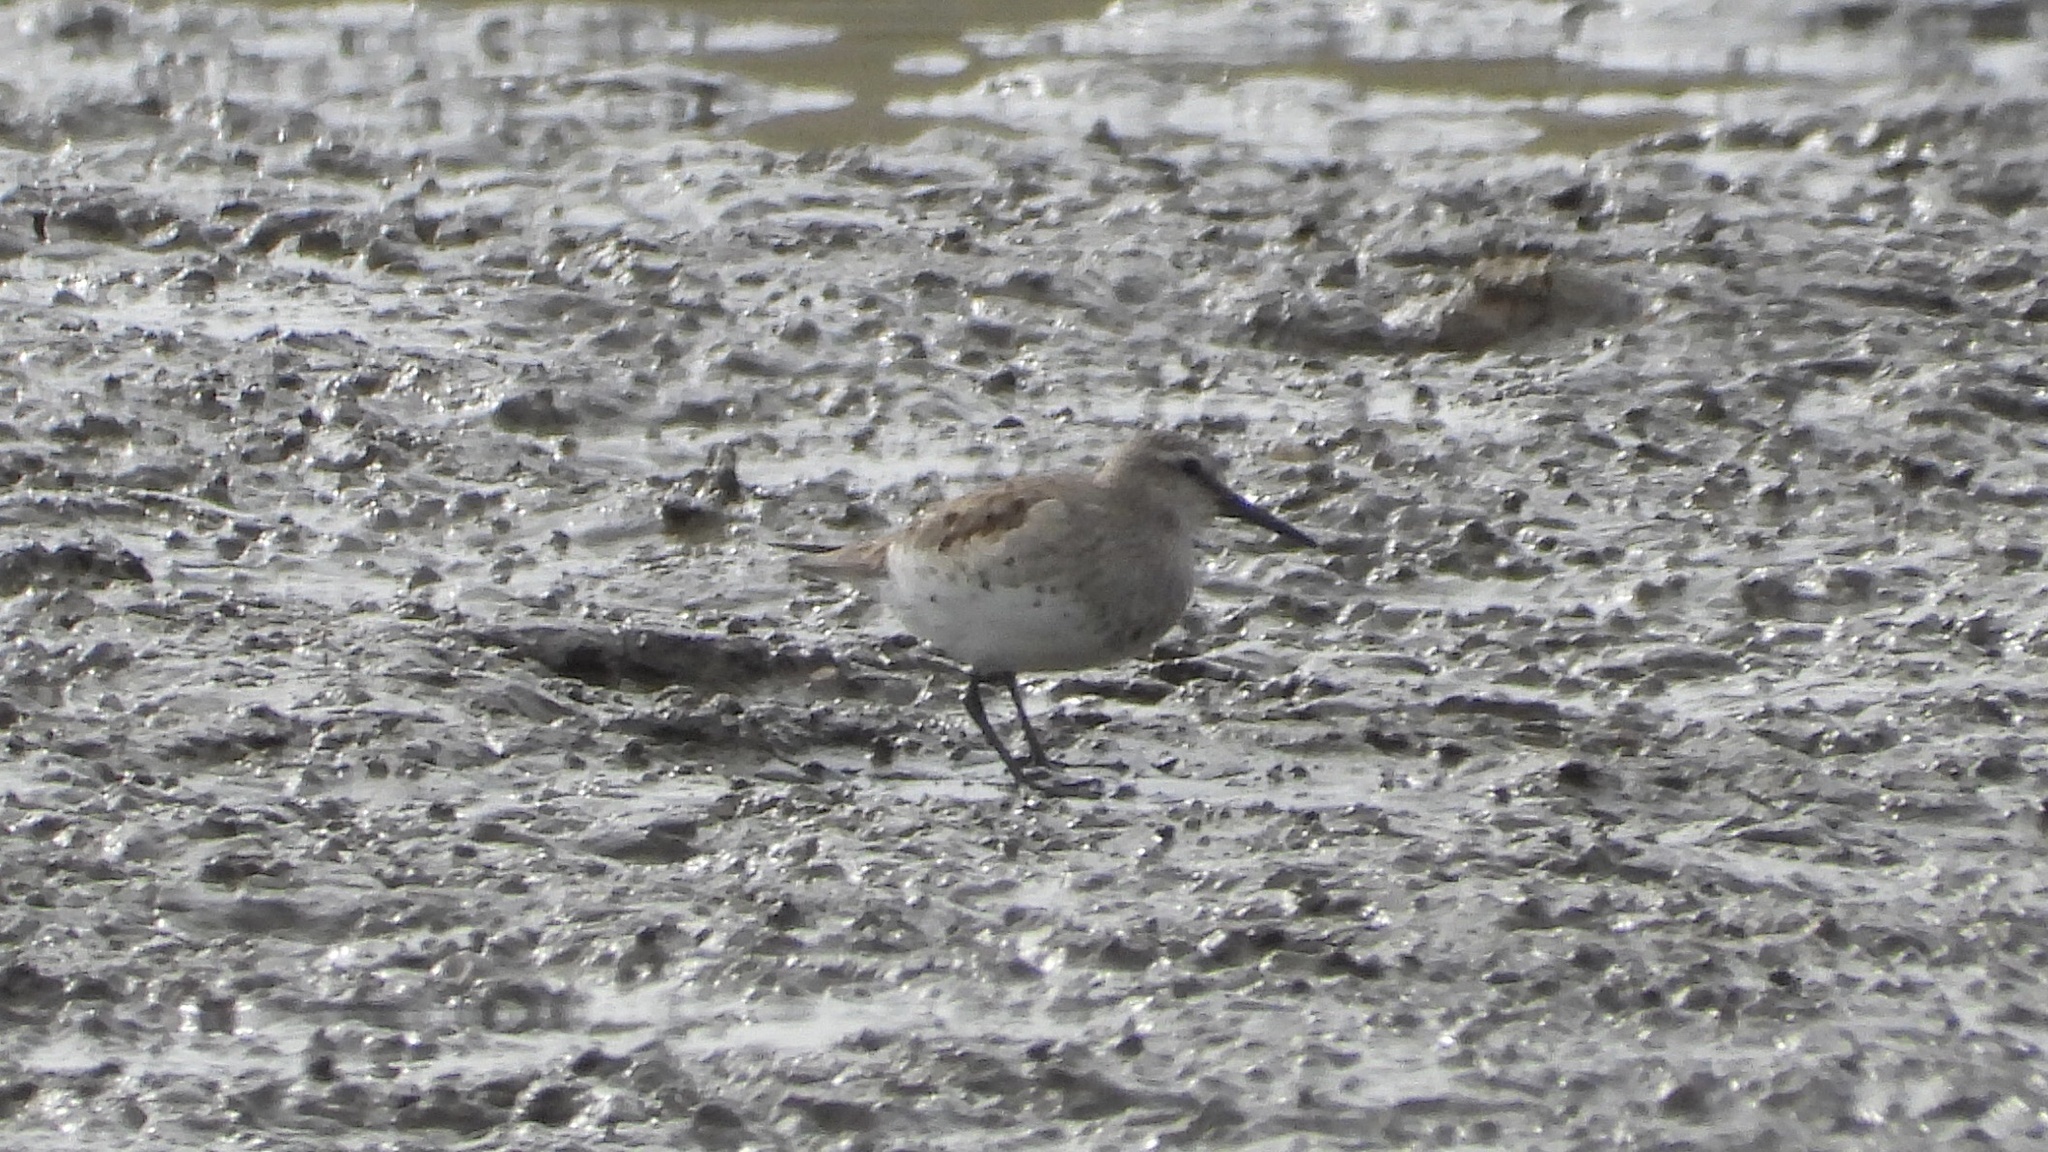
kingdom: Animalia
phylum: Chordata
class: Aves
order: Charadriiformes
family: Scolopacidae
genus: Calidris
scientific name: Calidris fuscicollis
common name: White-rumped sandpiper
